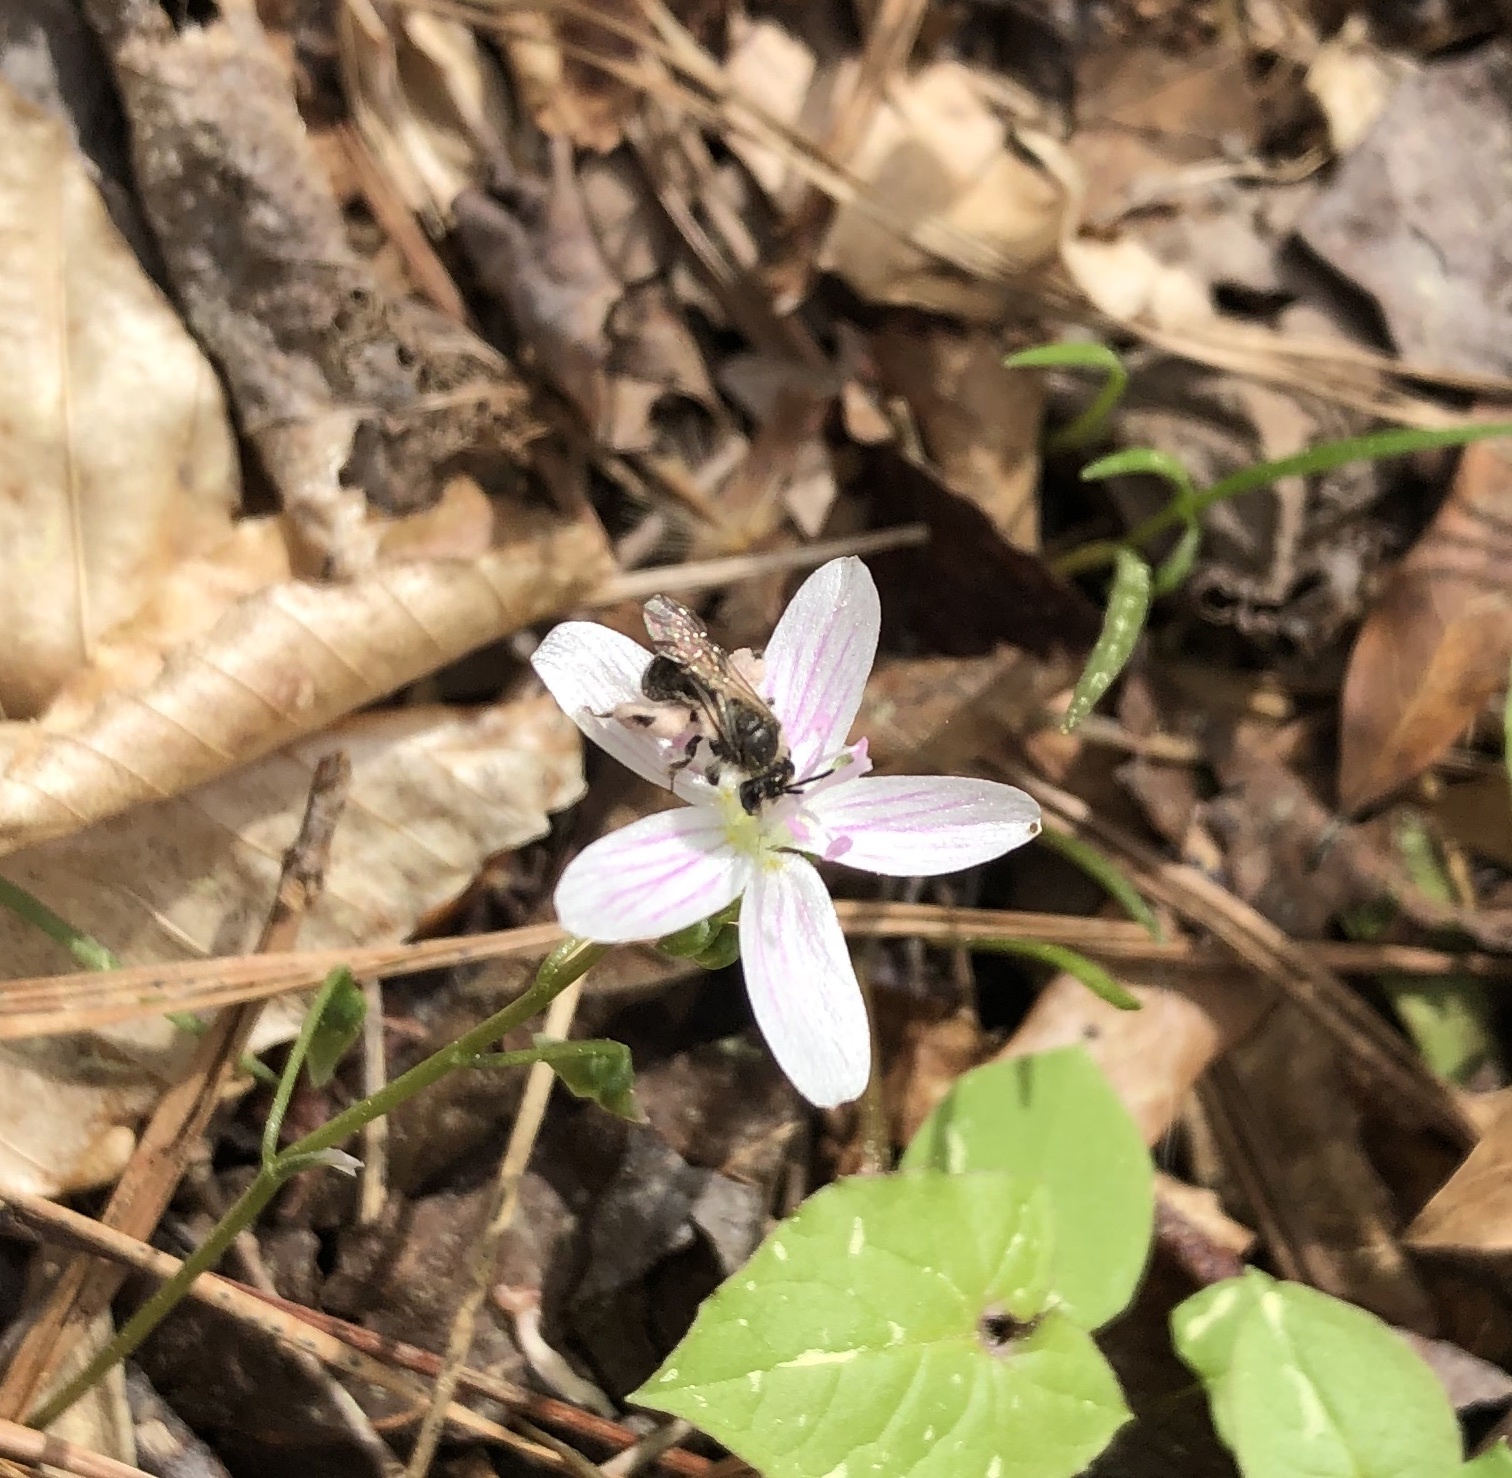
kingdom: Animalia
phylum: Arthropoda
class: Insecta
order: Hymenoptera
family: Andrenidae
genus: Andrena
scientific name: Andrena erigeniae
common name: Spring beauty miner
